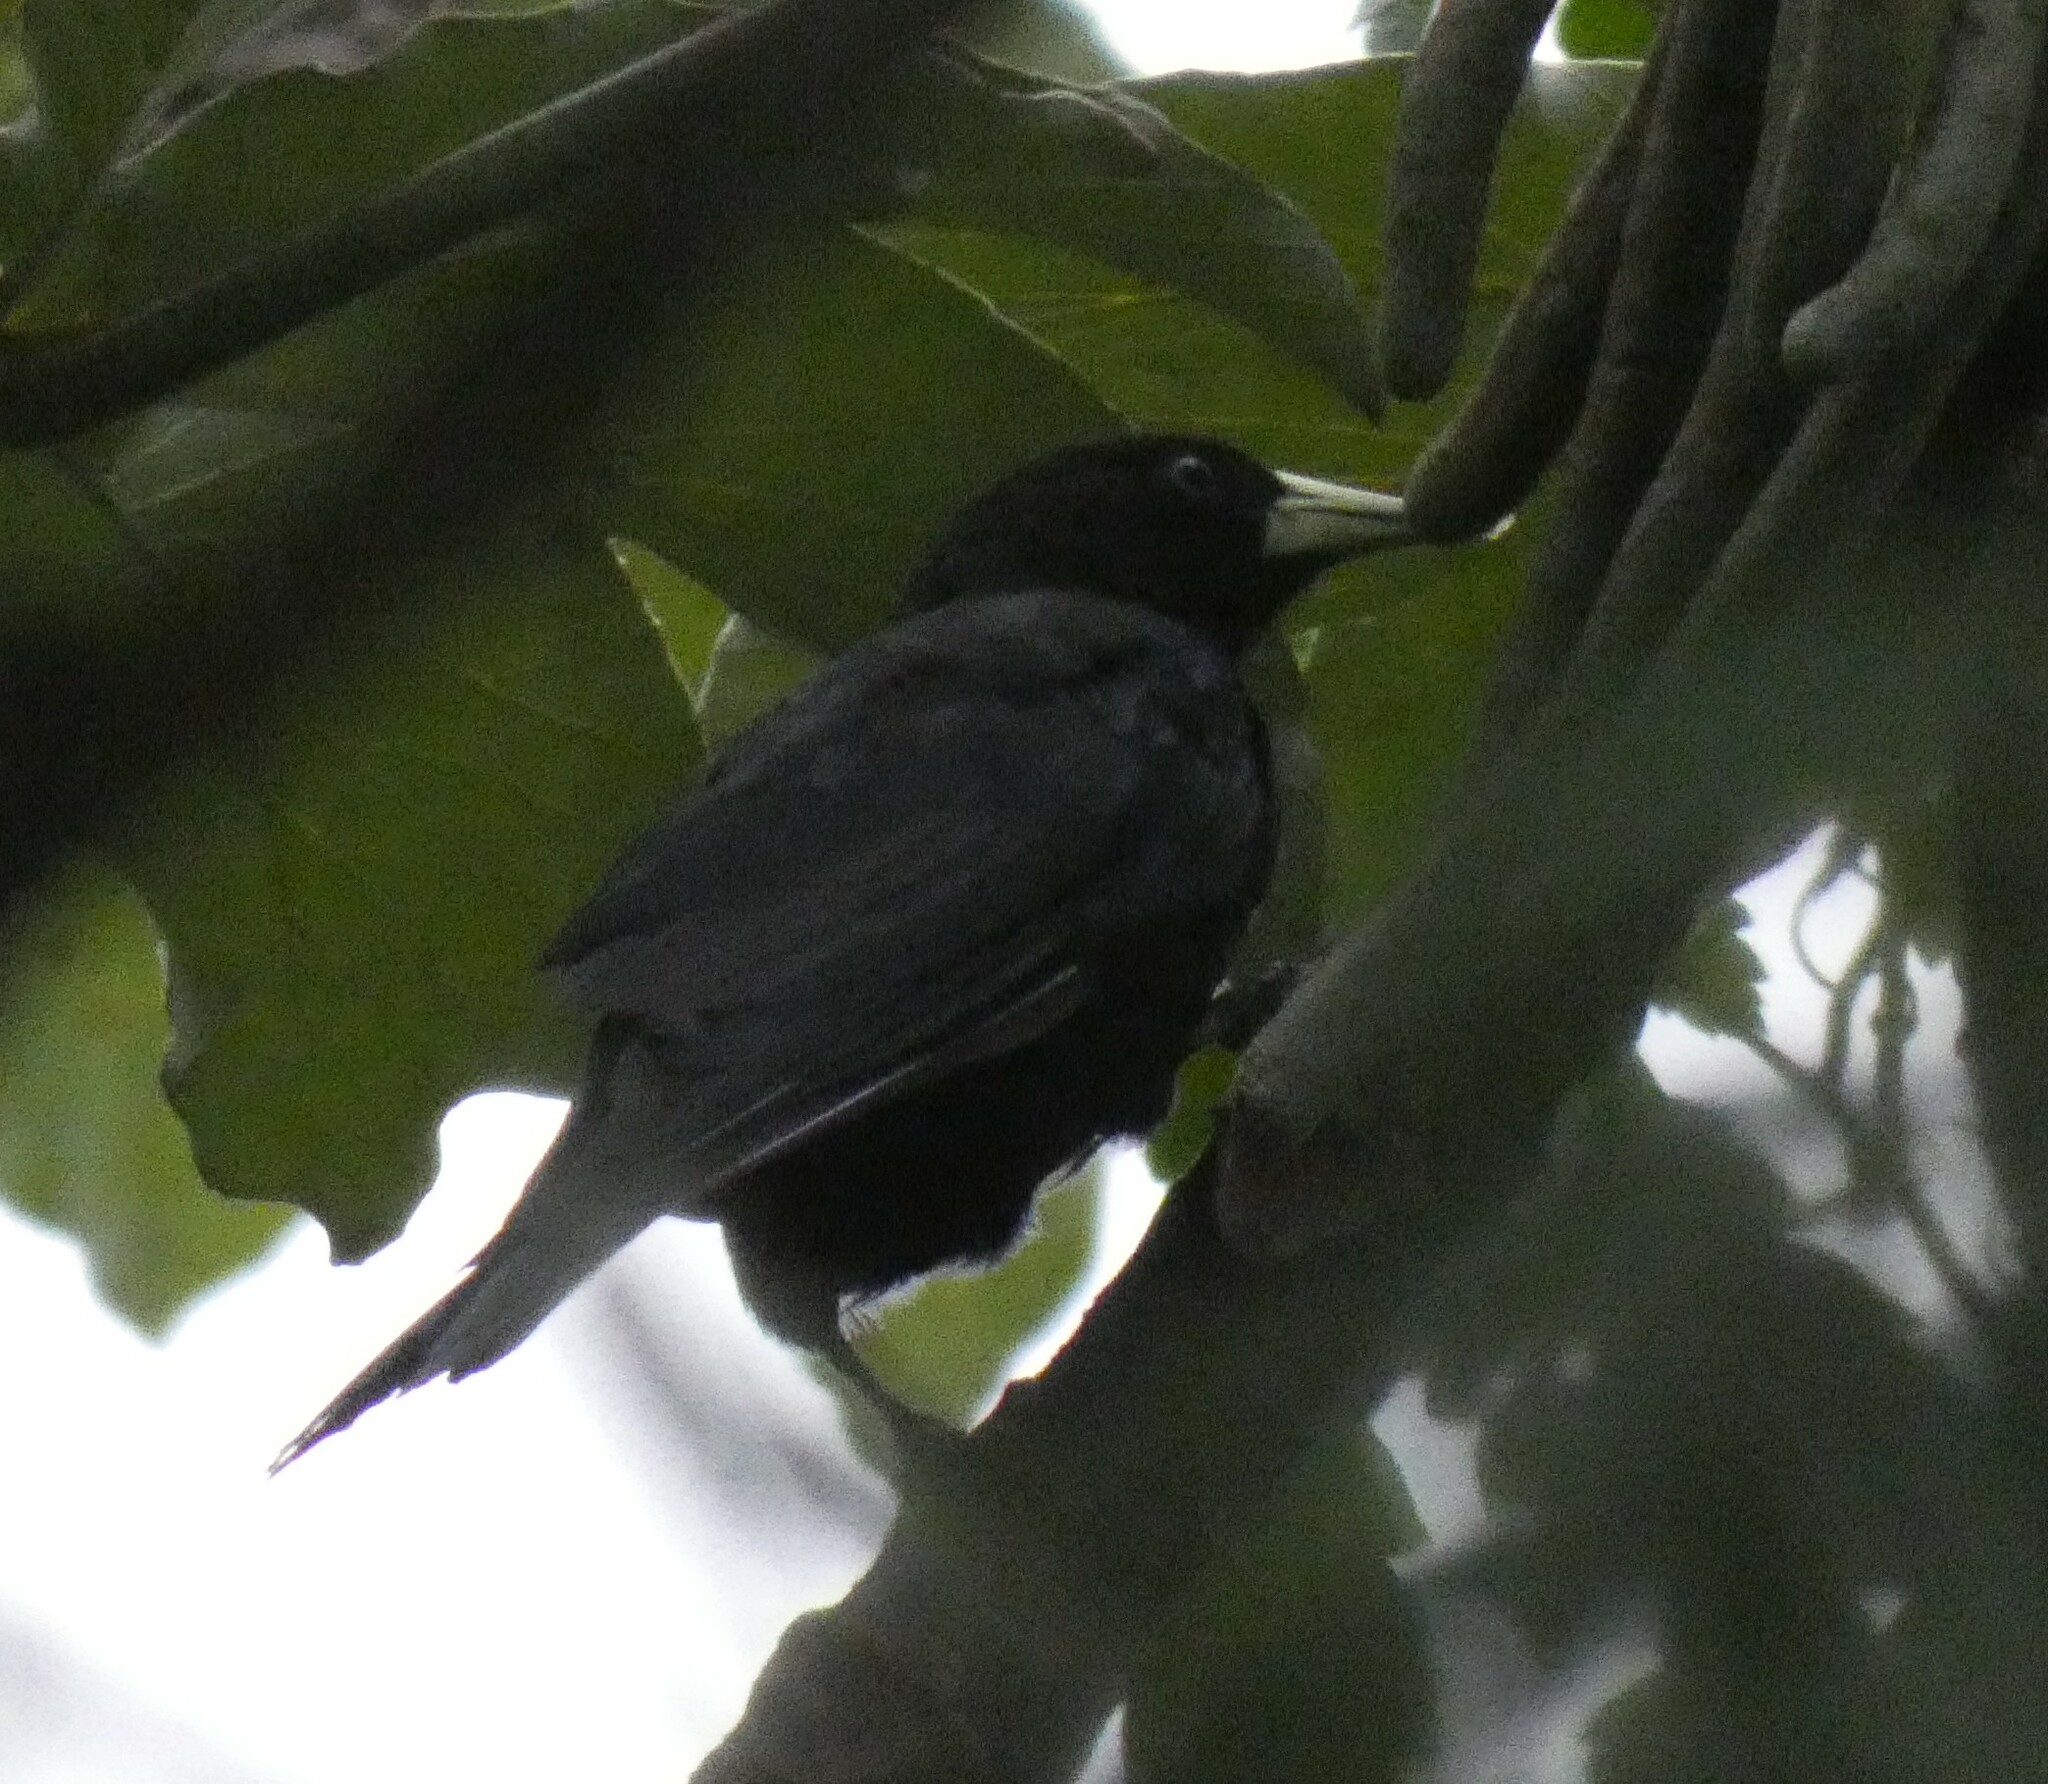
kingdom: Animalia
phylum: Chordata
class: Aves
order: Passeriformes
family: Icteridae
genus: Cacicus
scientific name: Cacicus haemorrhous
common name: Red-rumped cacique
